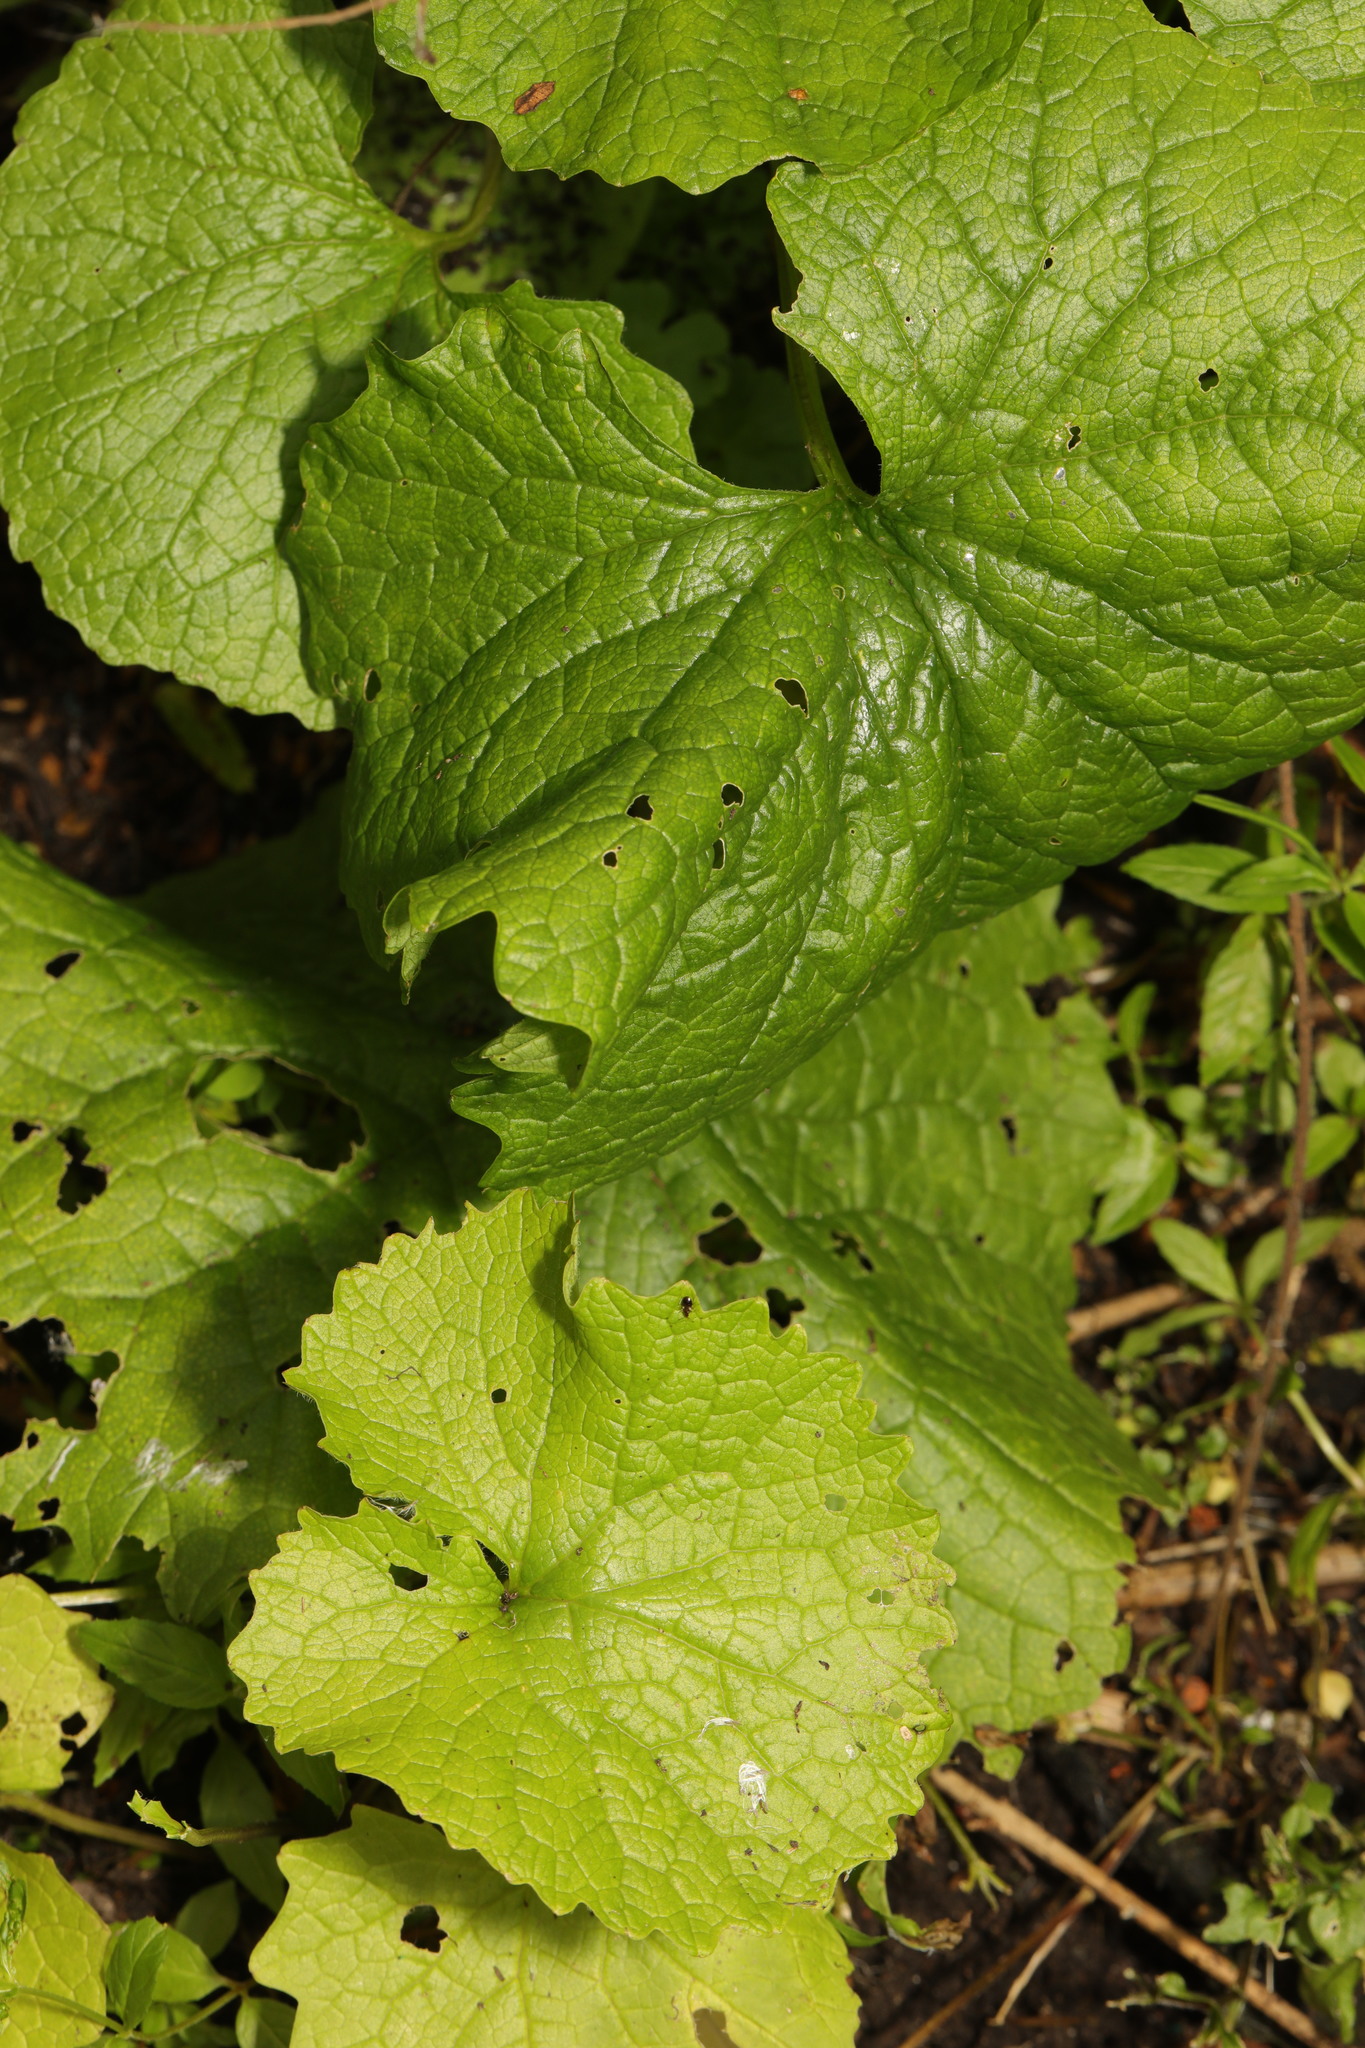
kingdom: Plantae
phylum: Tracheophyta
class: Magnoliopsida
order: Brassicales
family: Brassicaceae
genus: Alliaria
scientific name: Alliaria petiolata
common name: Garlic mustard
